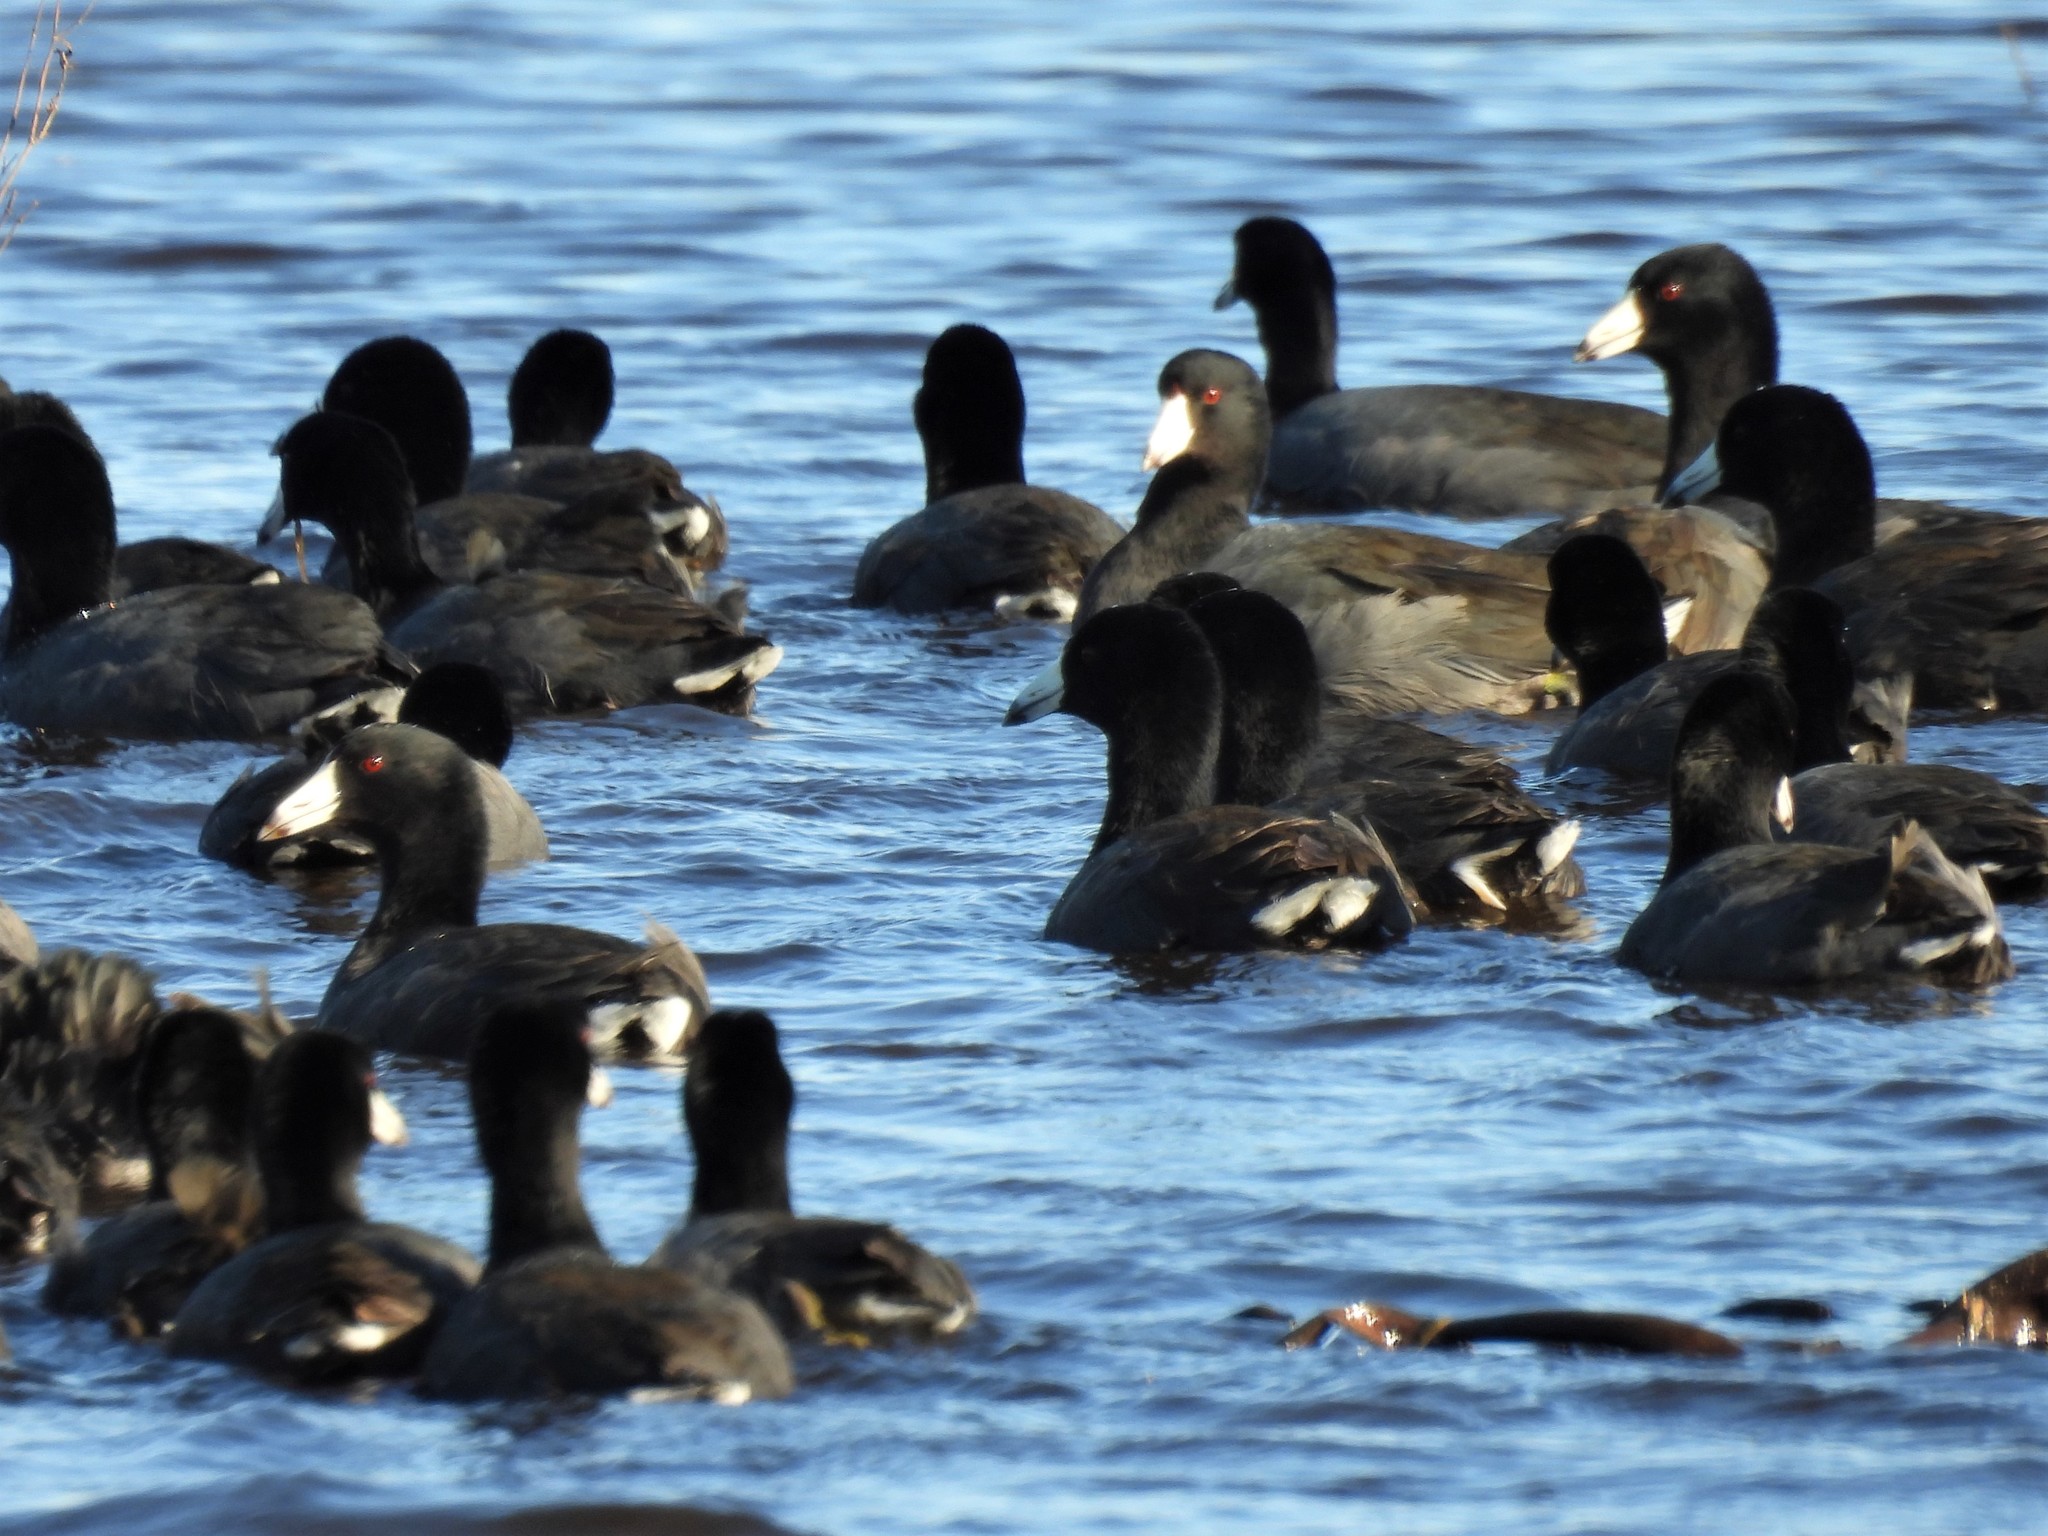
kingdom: Animalia
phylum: Chordata
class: Aves
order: Gruiformes
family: Rallidae
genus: Fulica
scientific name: Fulica americana
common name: American coot
